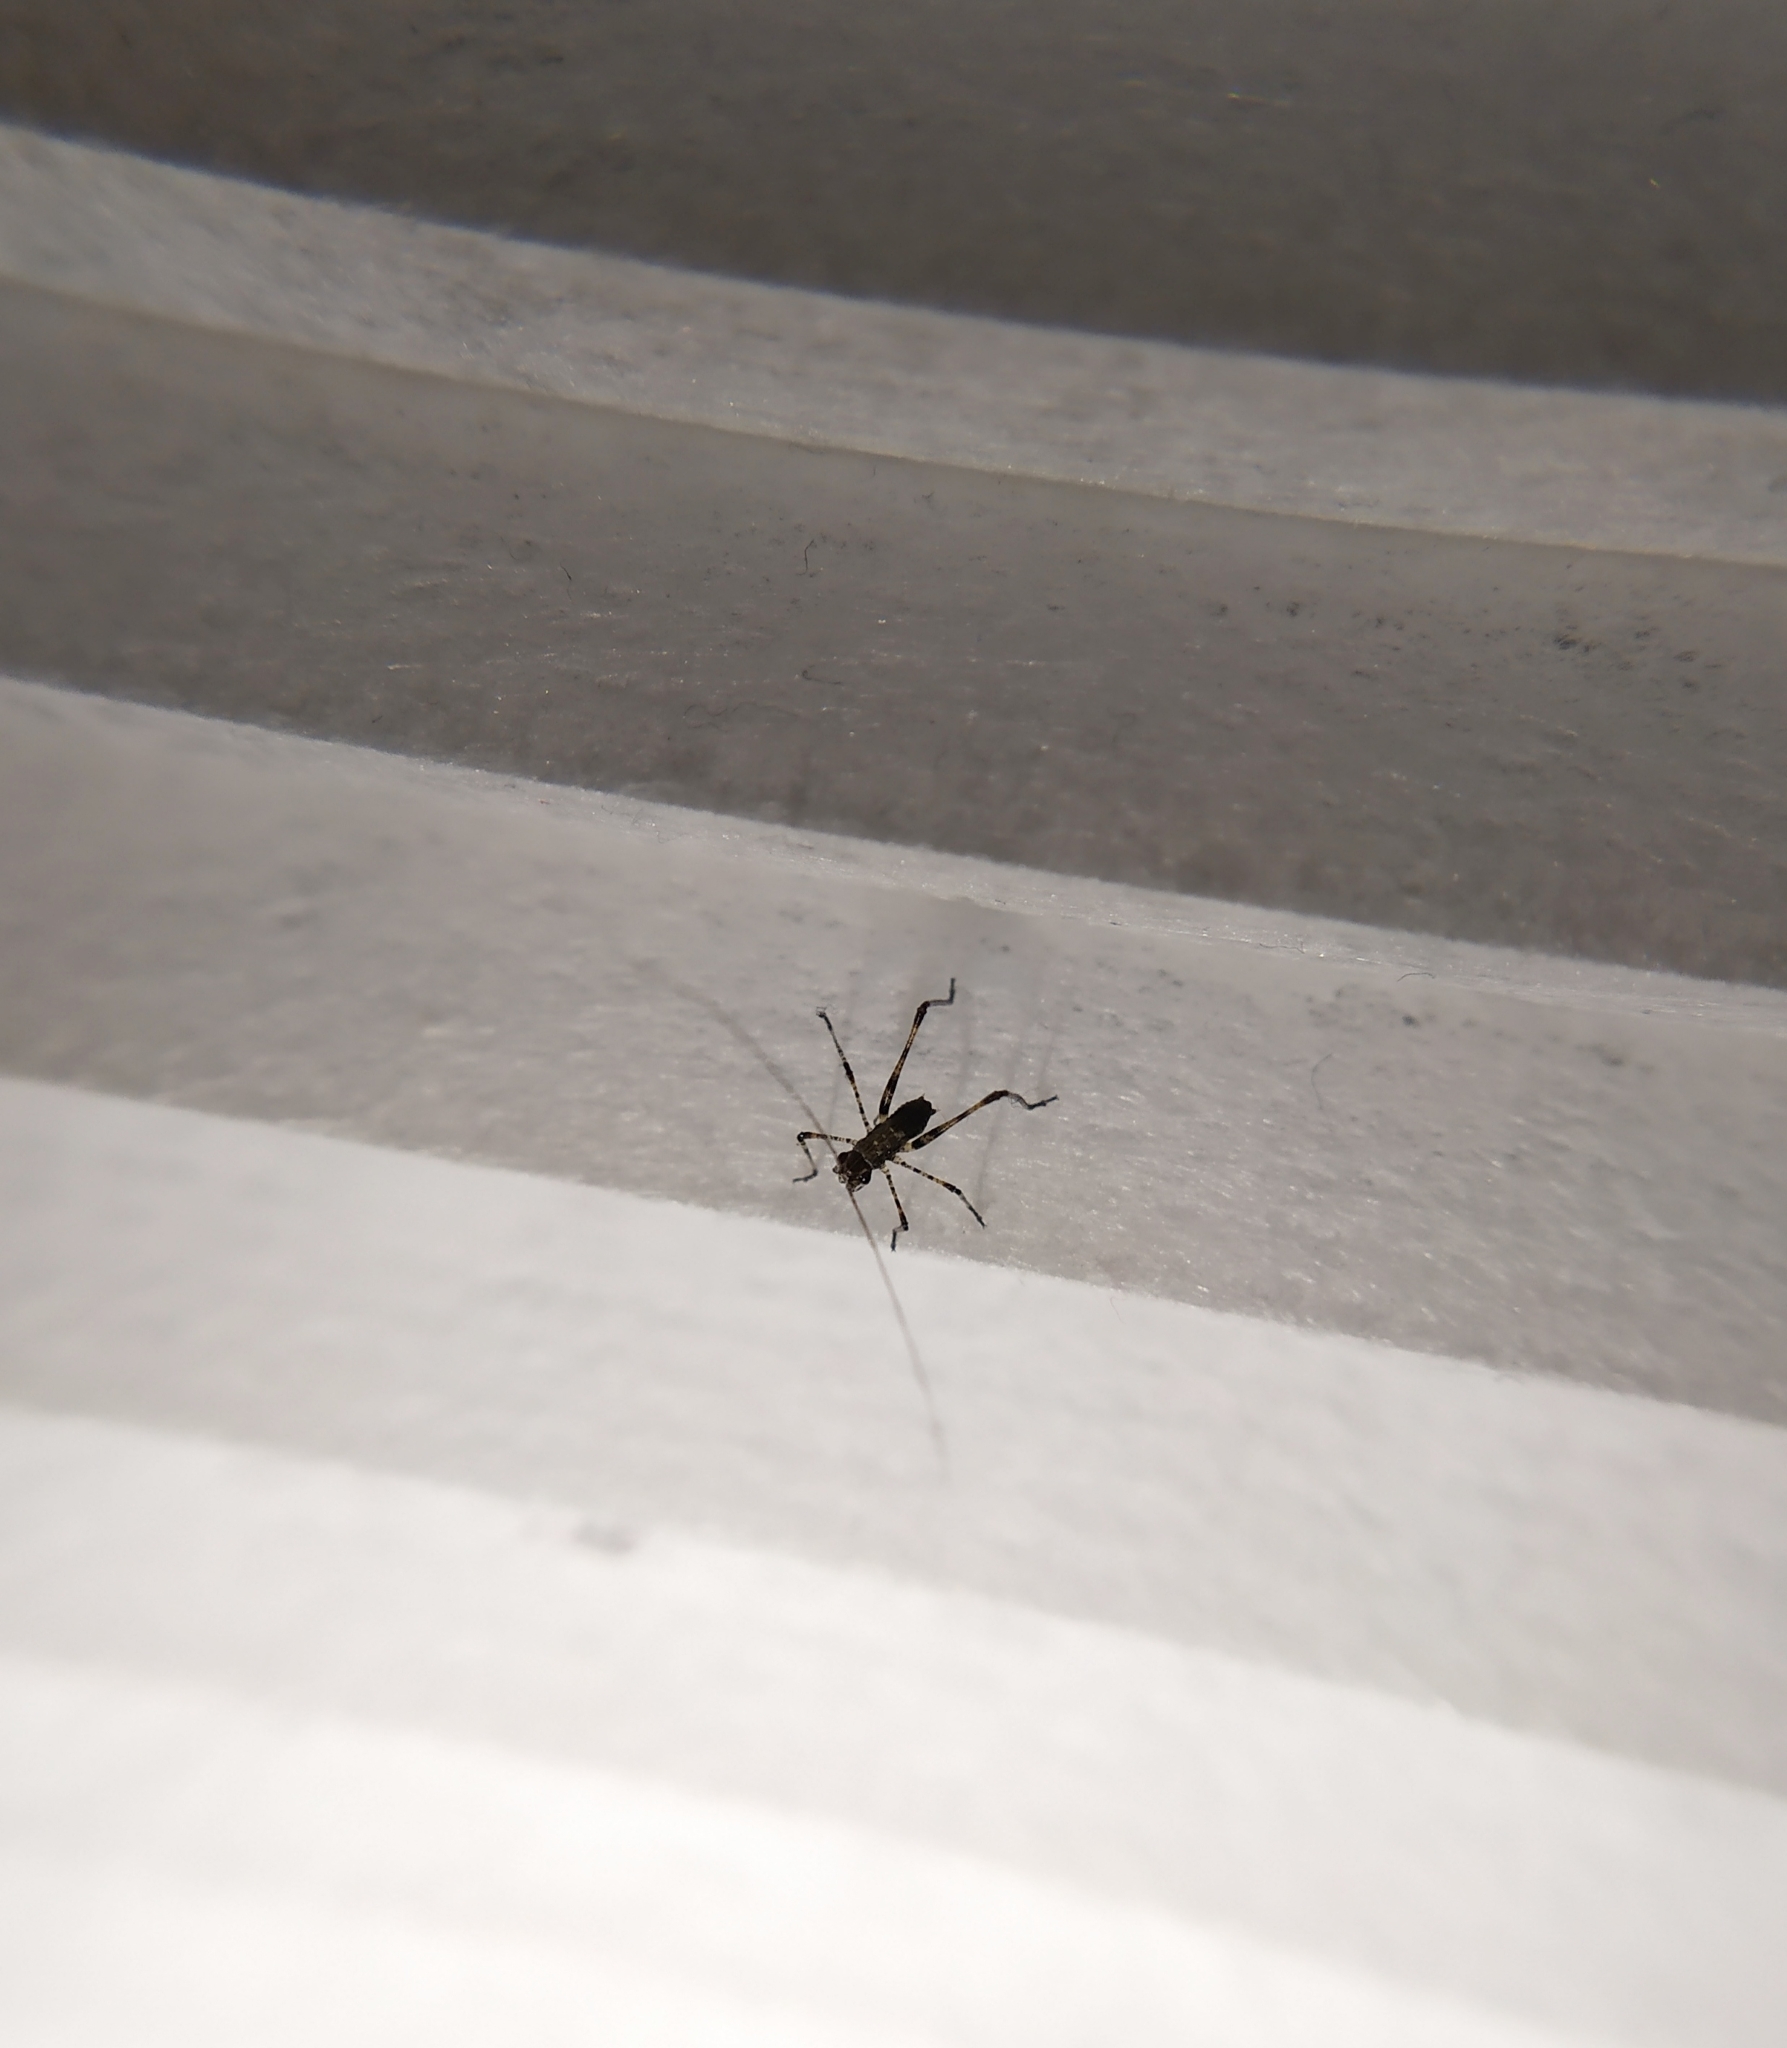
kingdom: Animalia
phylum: Arthropoda
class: Insecta
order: Orthoptera
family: Tettigoniidae
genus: Phaneroptera
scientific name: Phaneroptera nana
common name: Southern sickle bush-cricket
